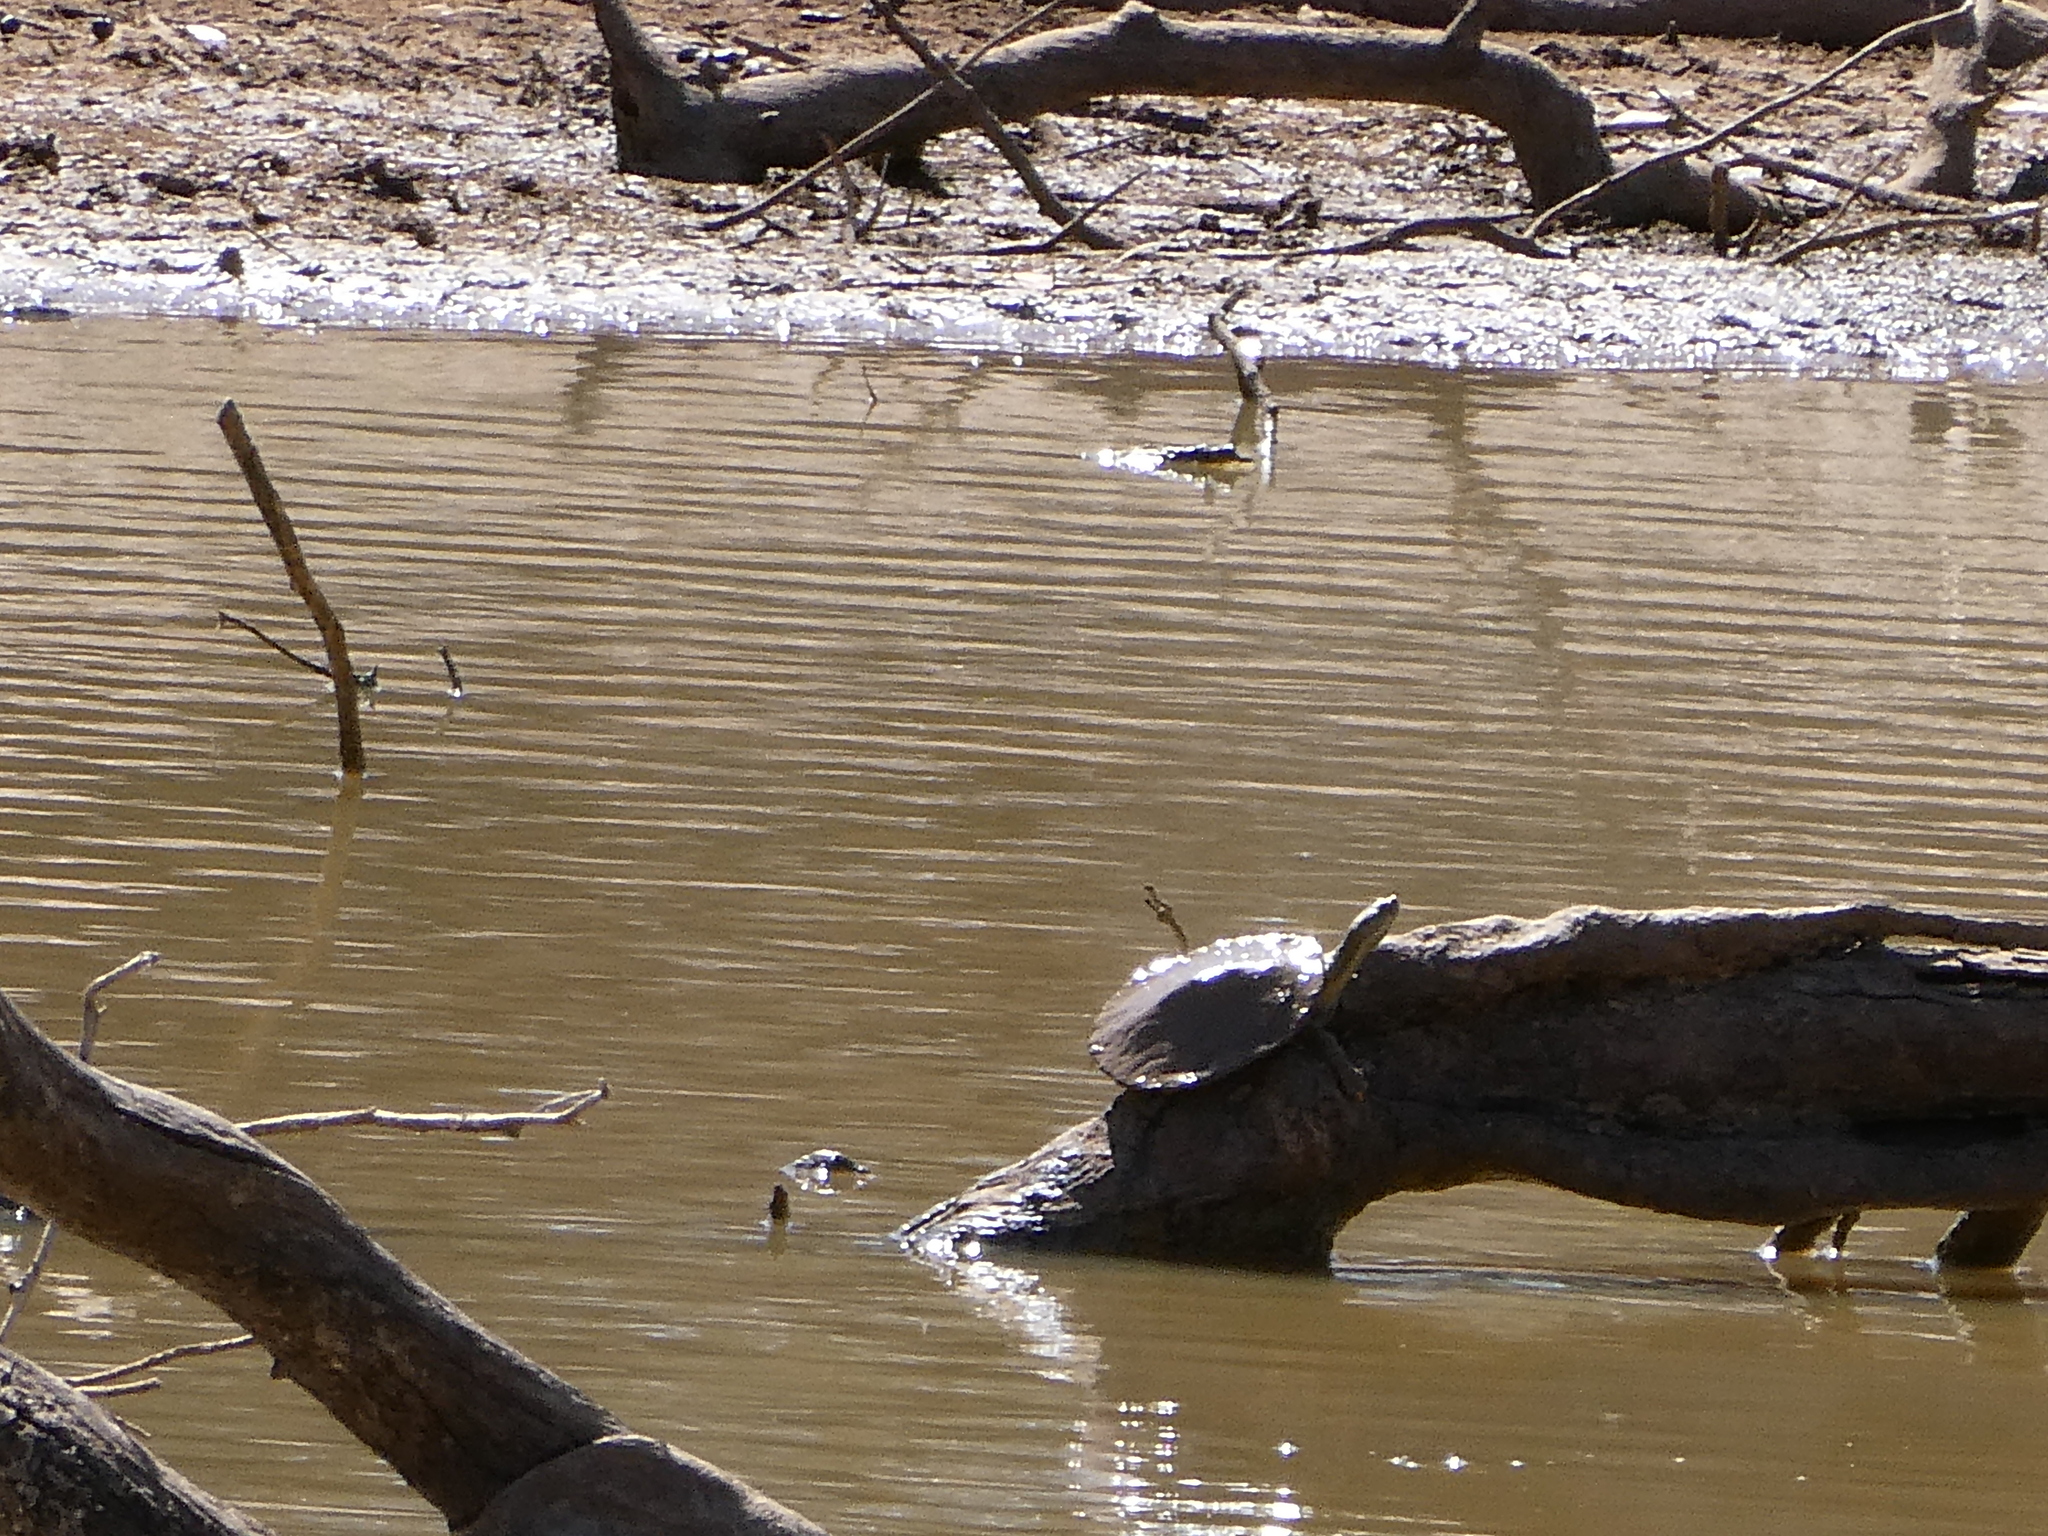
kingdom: Animalia
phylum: Chordata
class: Testudines
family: Chelidae
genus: Emydura
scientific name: Emydura macquarii
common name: Murray river turtle
